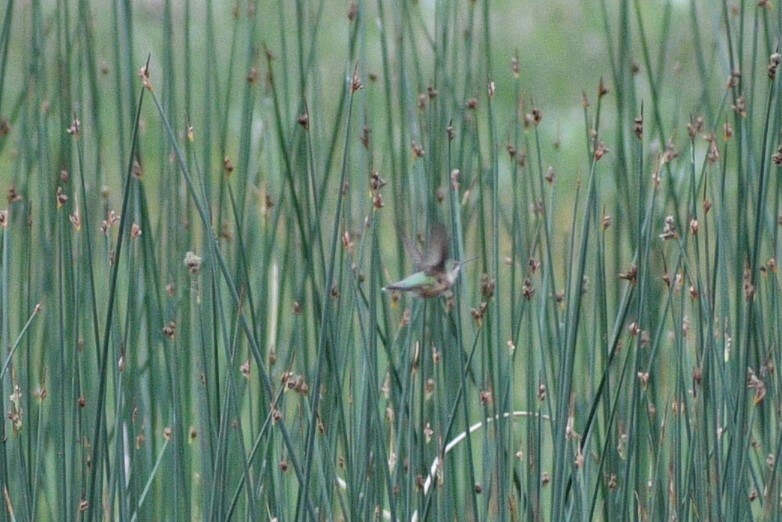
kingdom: Animalia
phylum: Chordata
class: Aves
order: Apodiformes
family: Trochilidae
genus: Selasphorus
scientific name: Selasphorus calliope
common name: Calliope hummingbird
